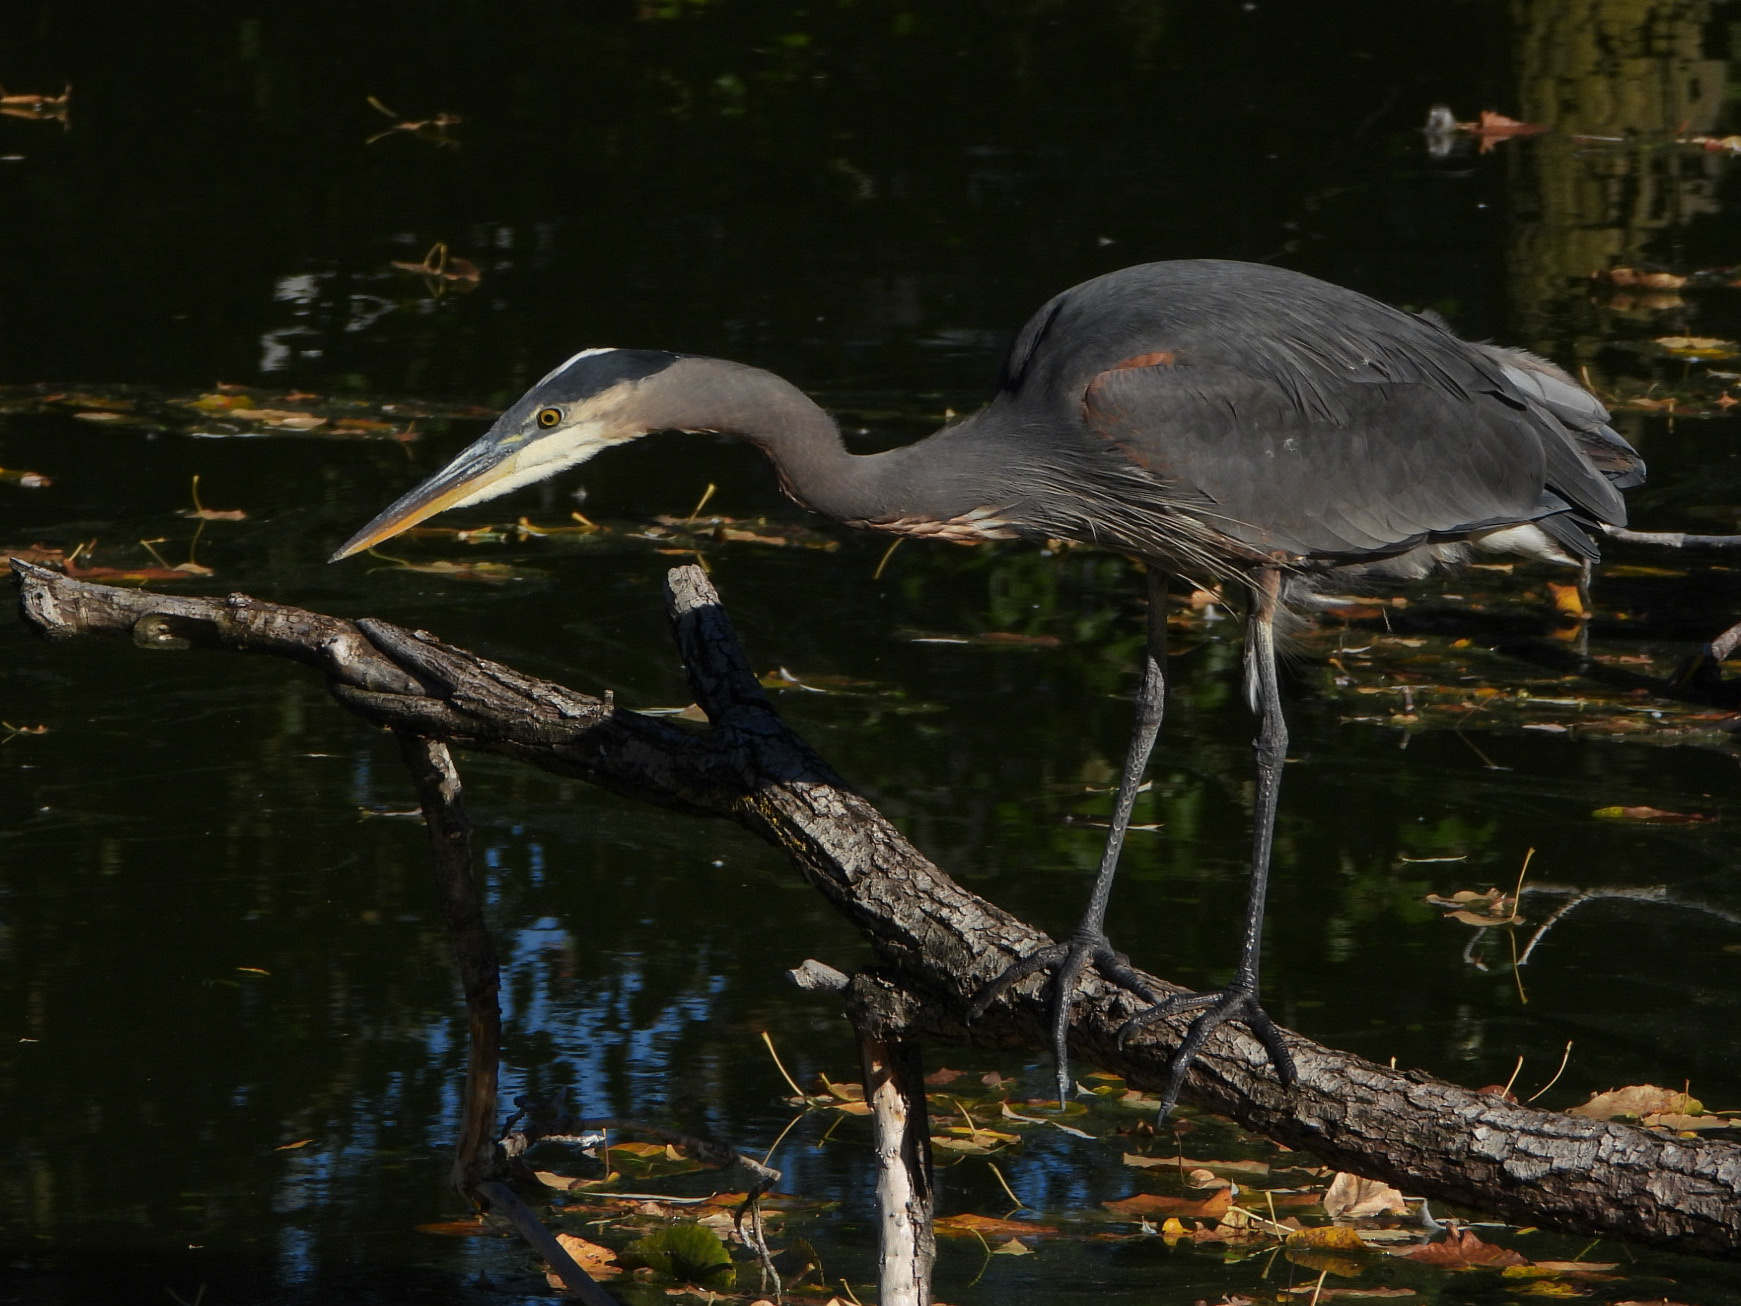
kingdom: Animalia
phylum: Chordata
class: Aves
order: Pelecaniformes
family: Ardeidae
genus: Ardea
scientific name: Ardea herodias
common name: Great blue heron
